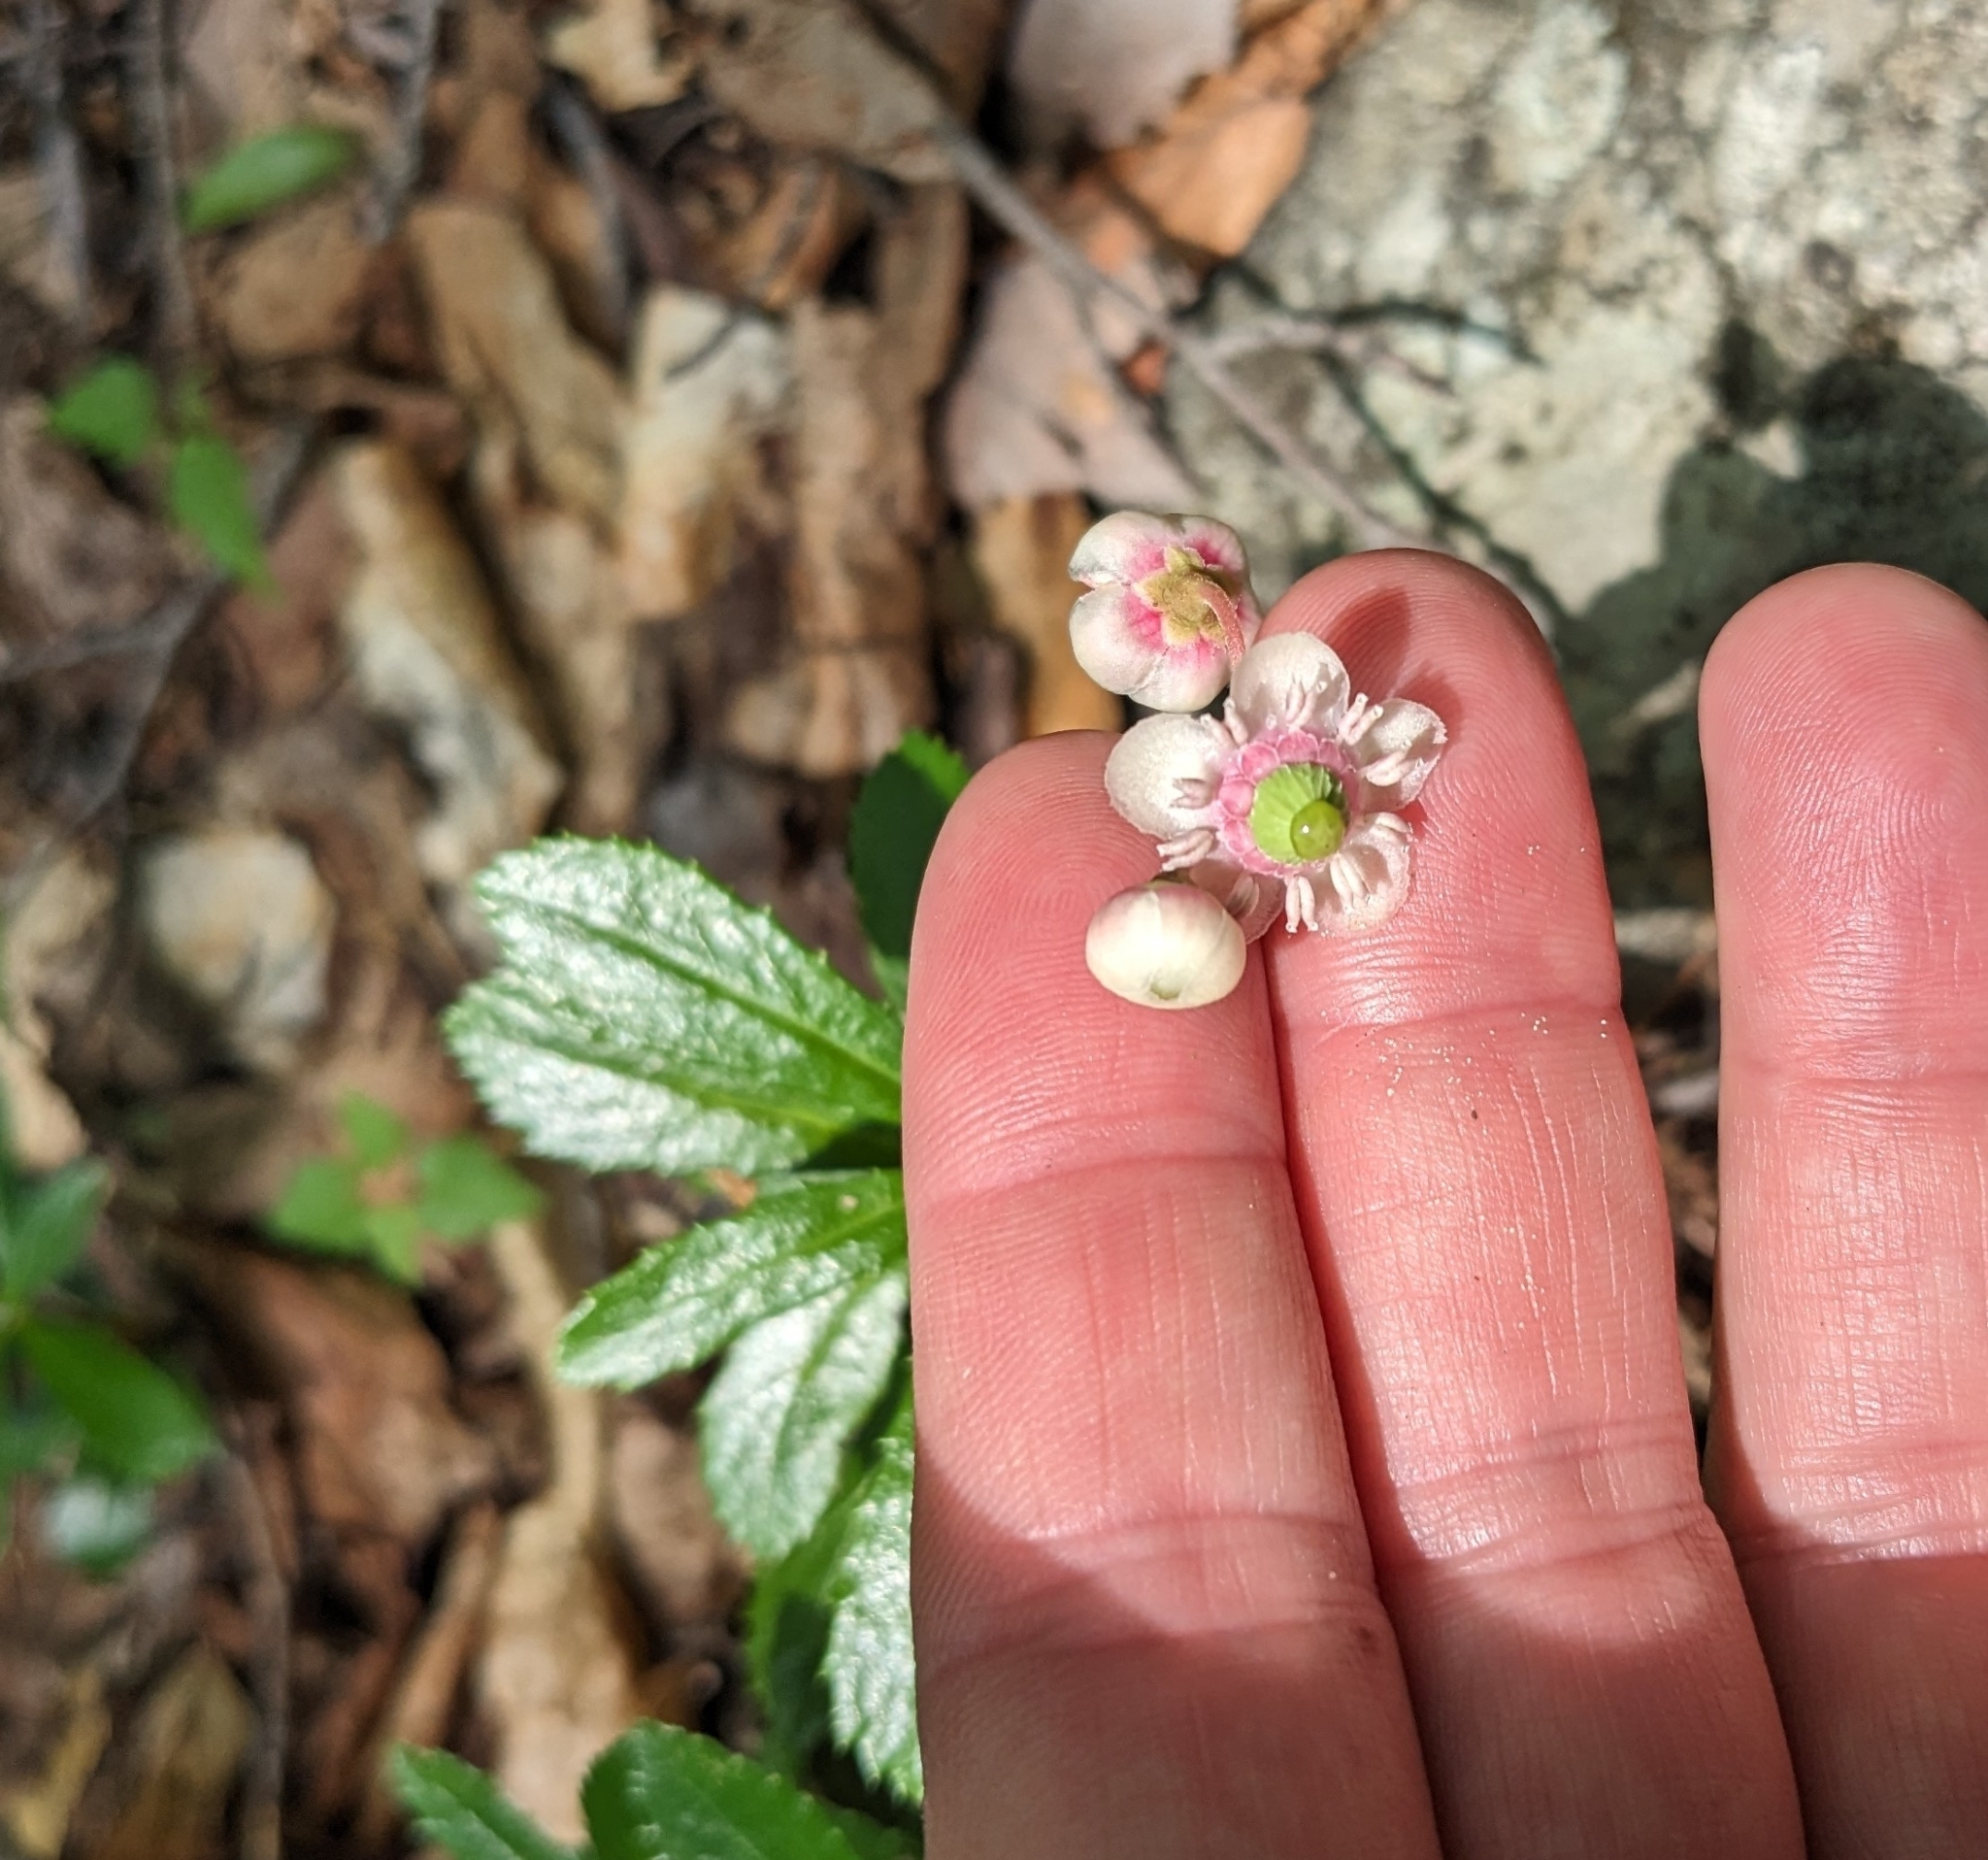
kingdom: Plantae
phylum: Tracheophyta
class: Magnoliopsida
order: Ericales
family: Ericaceae
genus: Chimaphila
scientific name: Chimaphila umbellata
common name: Pipsissewa
